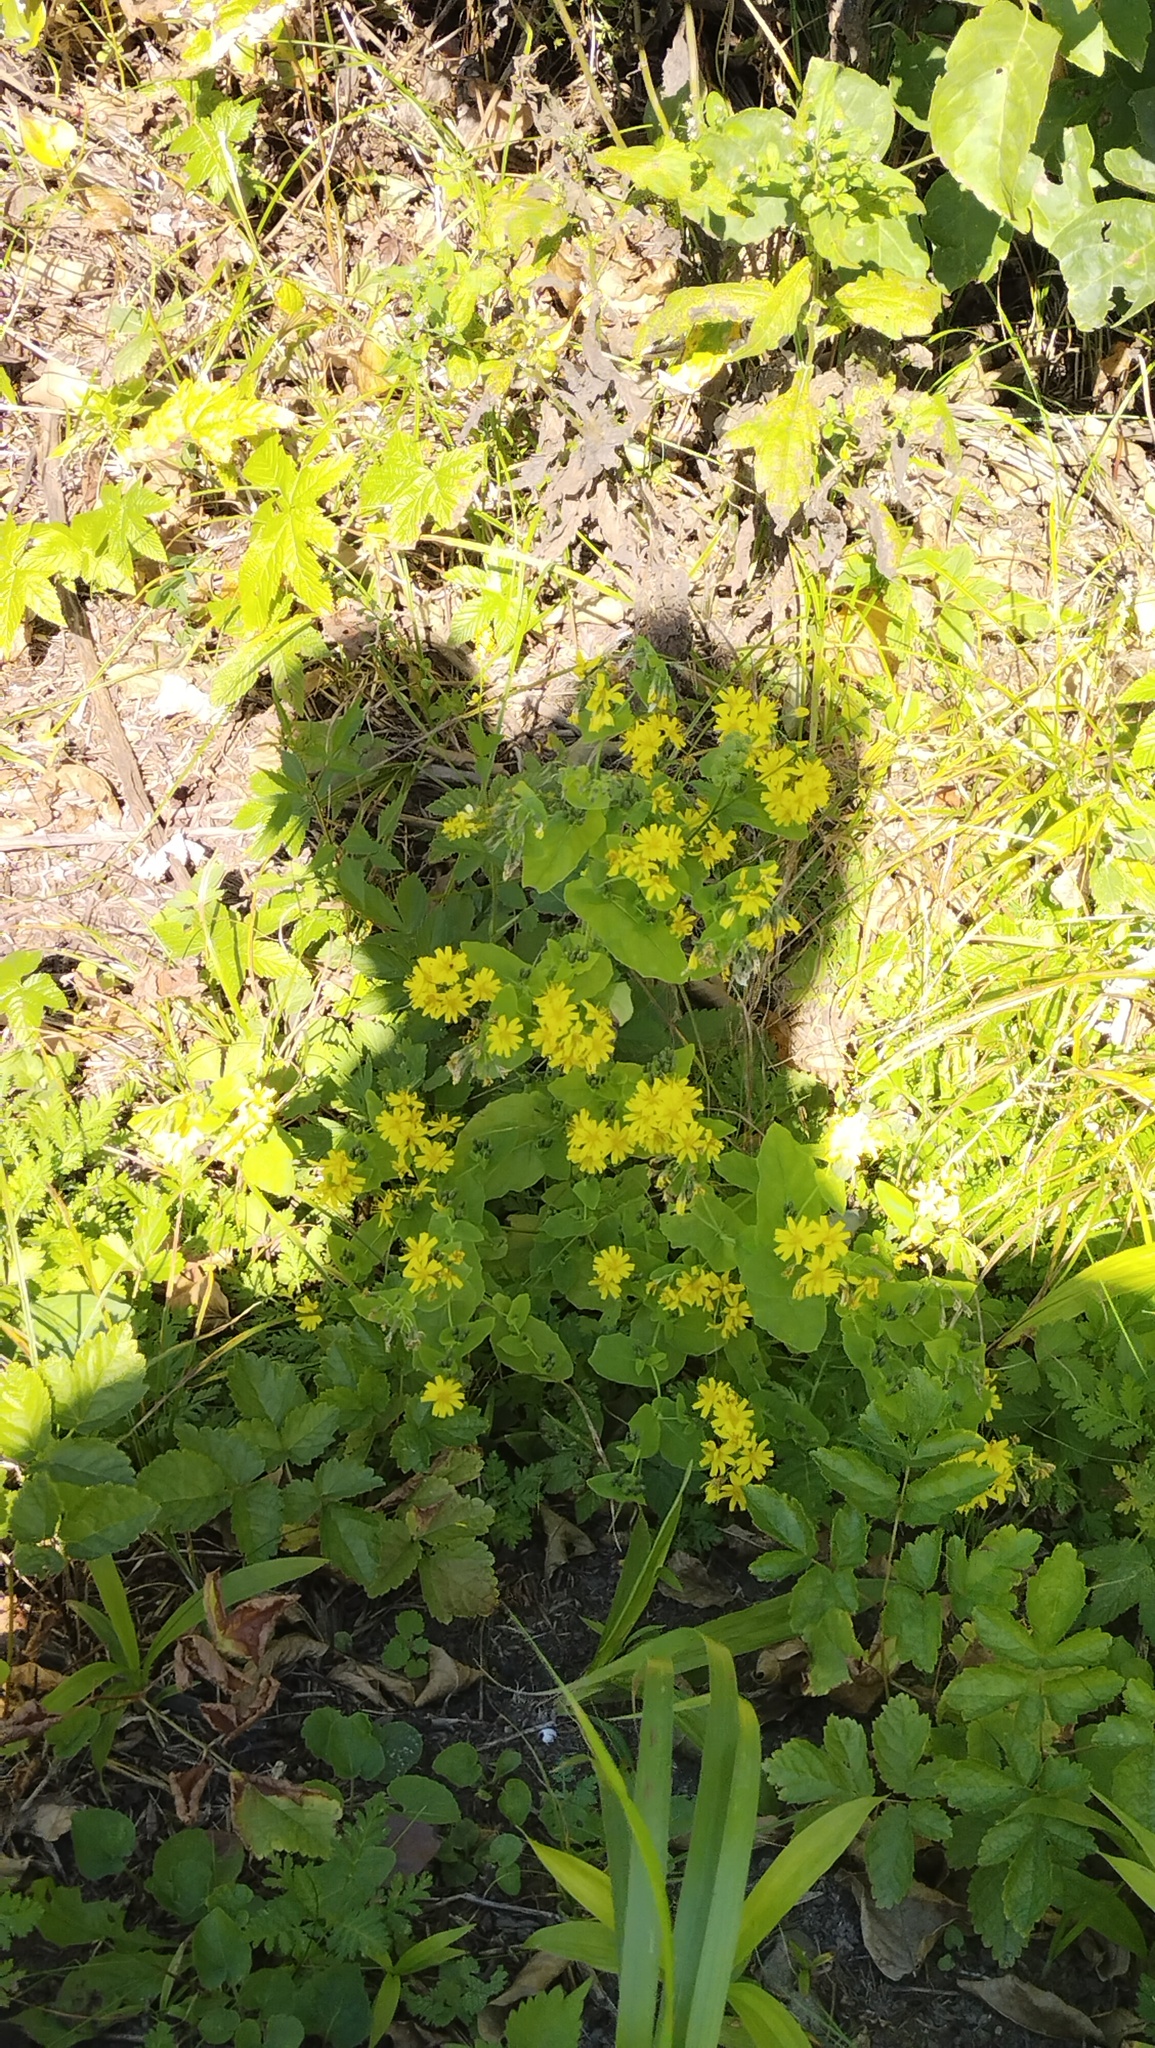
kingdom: Plantae
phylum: Tracheophyta
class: Magnoliopsida
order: Asterales
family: Asteraceae
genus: Crepidiastrum
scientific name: Crepidiastrum denticulatum
